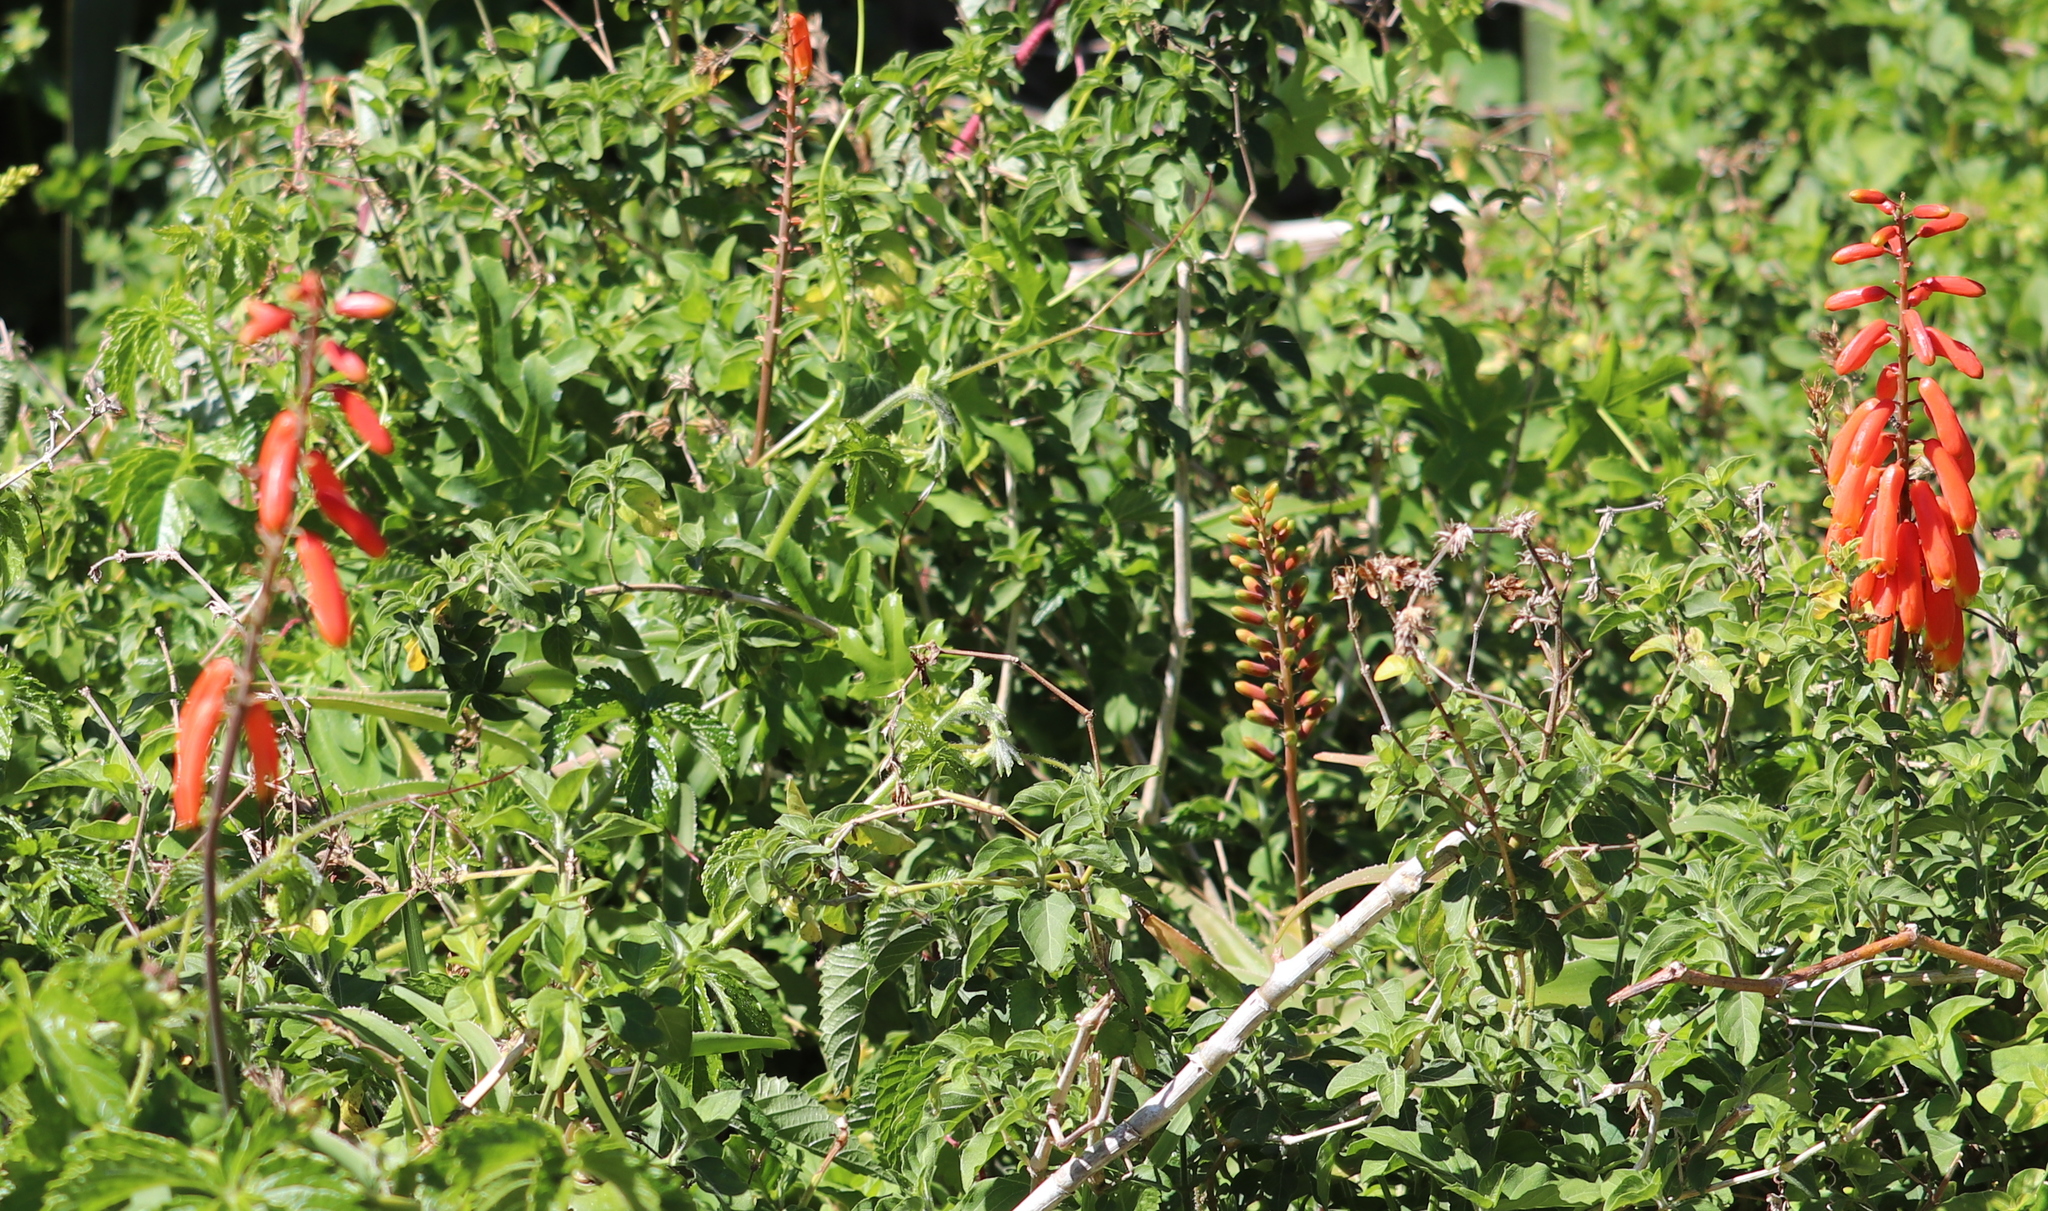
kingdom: Plantae
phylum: Tracheophyta
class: Liliopsida
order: Asparagales
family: Asphodelaceae
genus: Aloiampelos
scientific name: Aloiampelos ciliaris
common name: Climbing aloe
